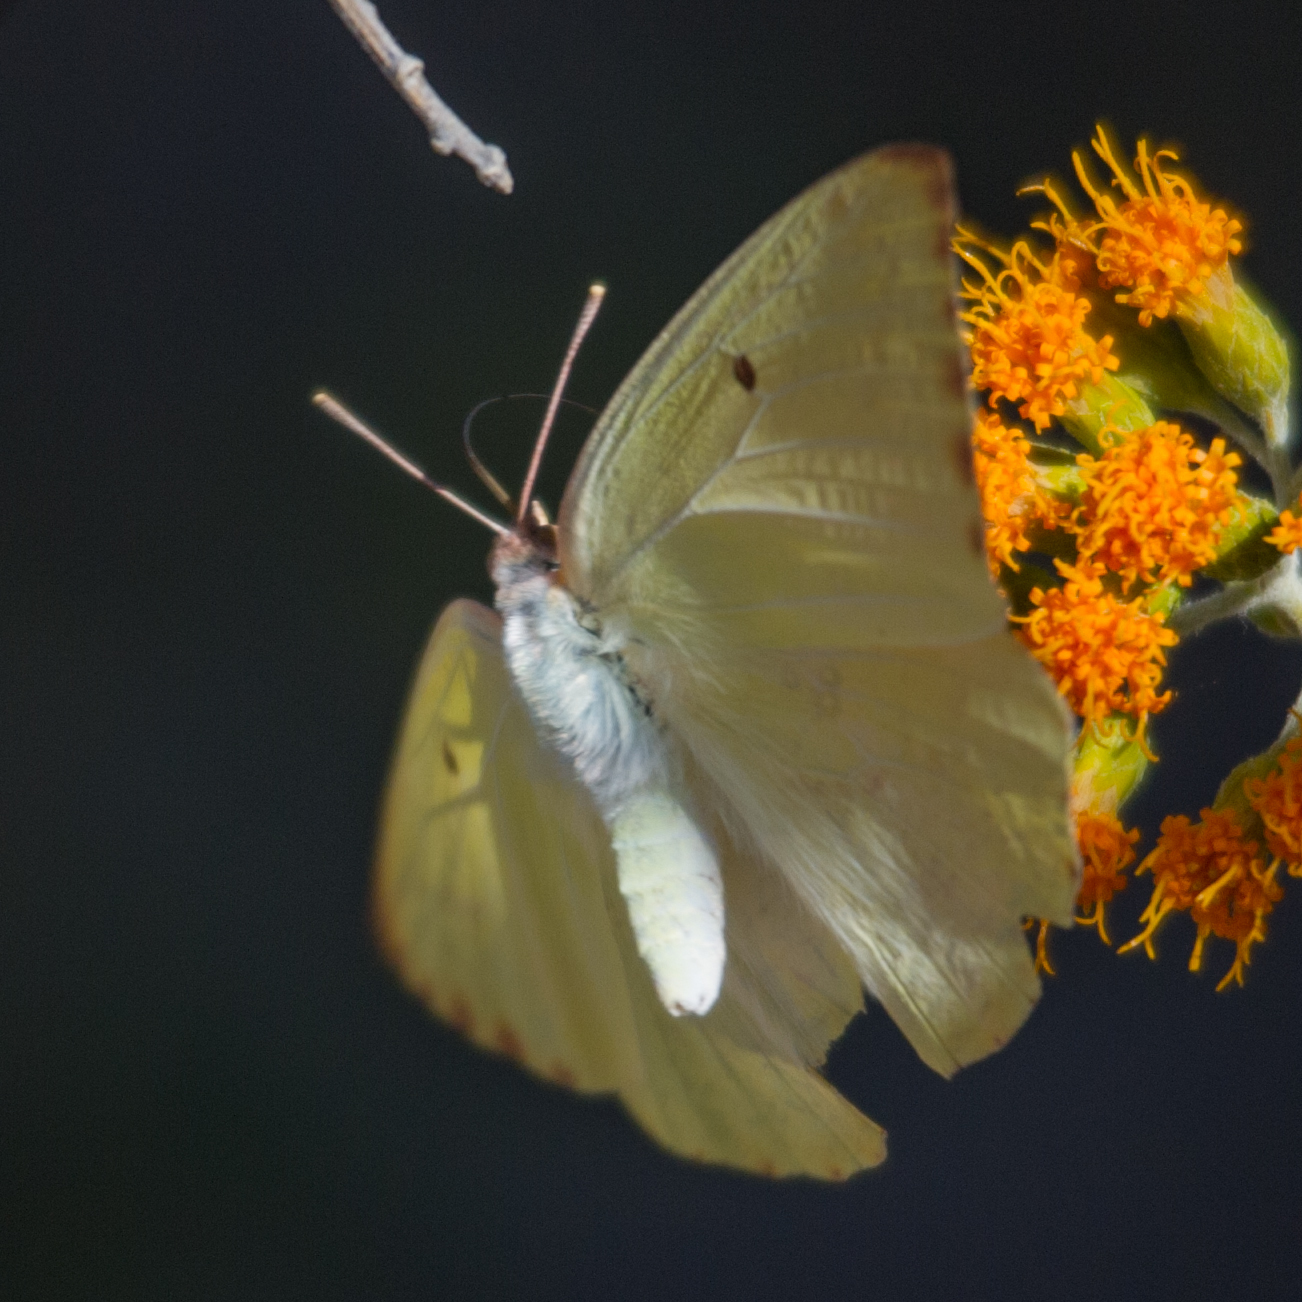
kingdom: Animalia
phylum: Arthropoda
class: Insecta
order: Lepidoptera
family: Pieridae
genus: Catopsilia
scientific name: Catopsilia florella
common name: African migrant
